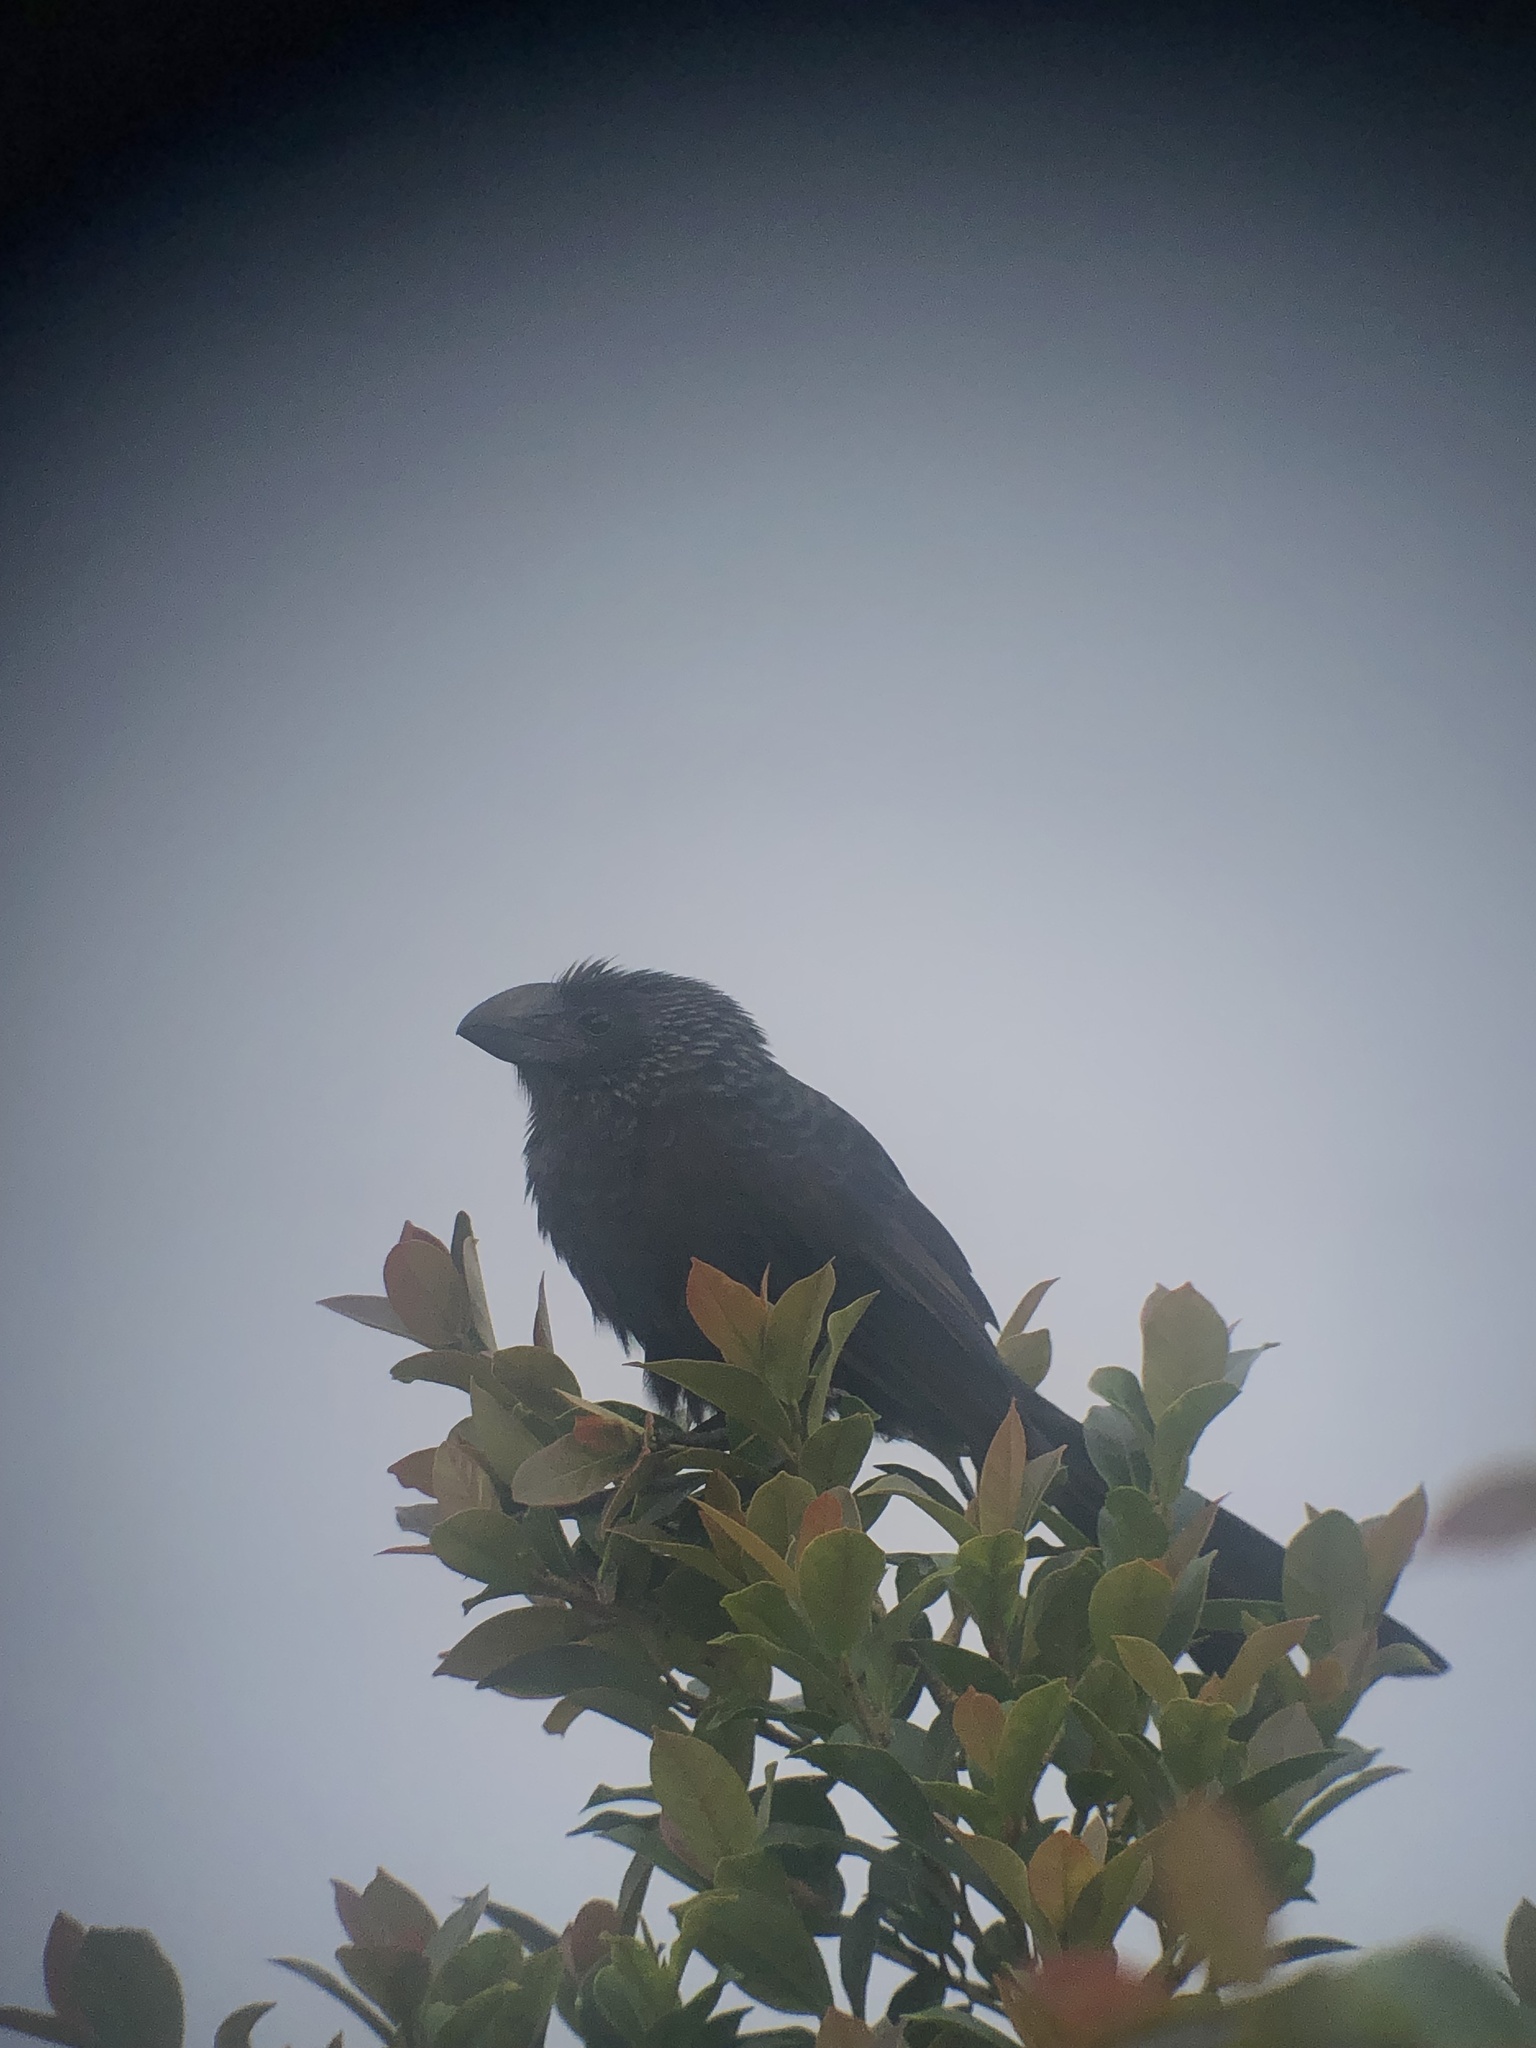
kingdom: Animalia
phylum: Chordata
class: Aves
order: Cuculiformes
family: Cuculidae
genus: Crotophaga
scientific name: Crotophaga ani
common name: Smooth-billed ani
